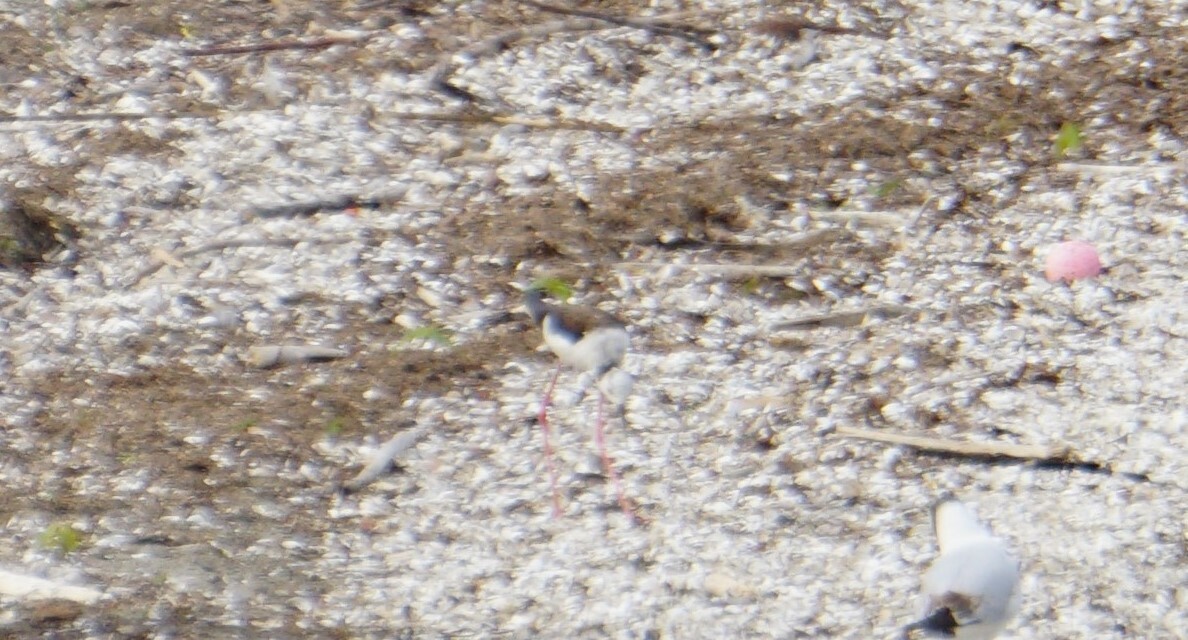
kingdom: Animalia
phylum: Chordata
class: Aves
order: Charadriiformes
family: Recurvirostridae
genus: Himantopus
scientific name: Himantopus himantopus
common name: Black-winged stilt
